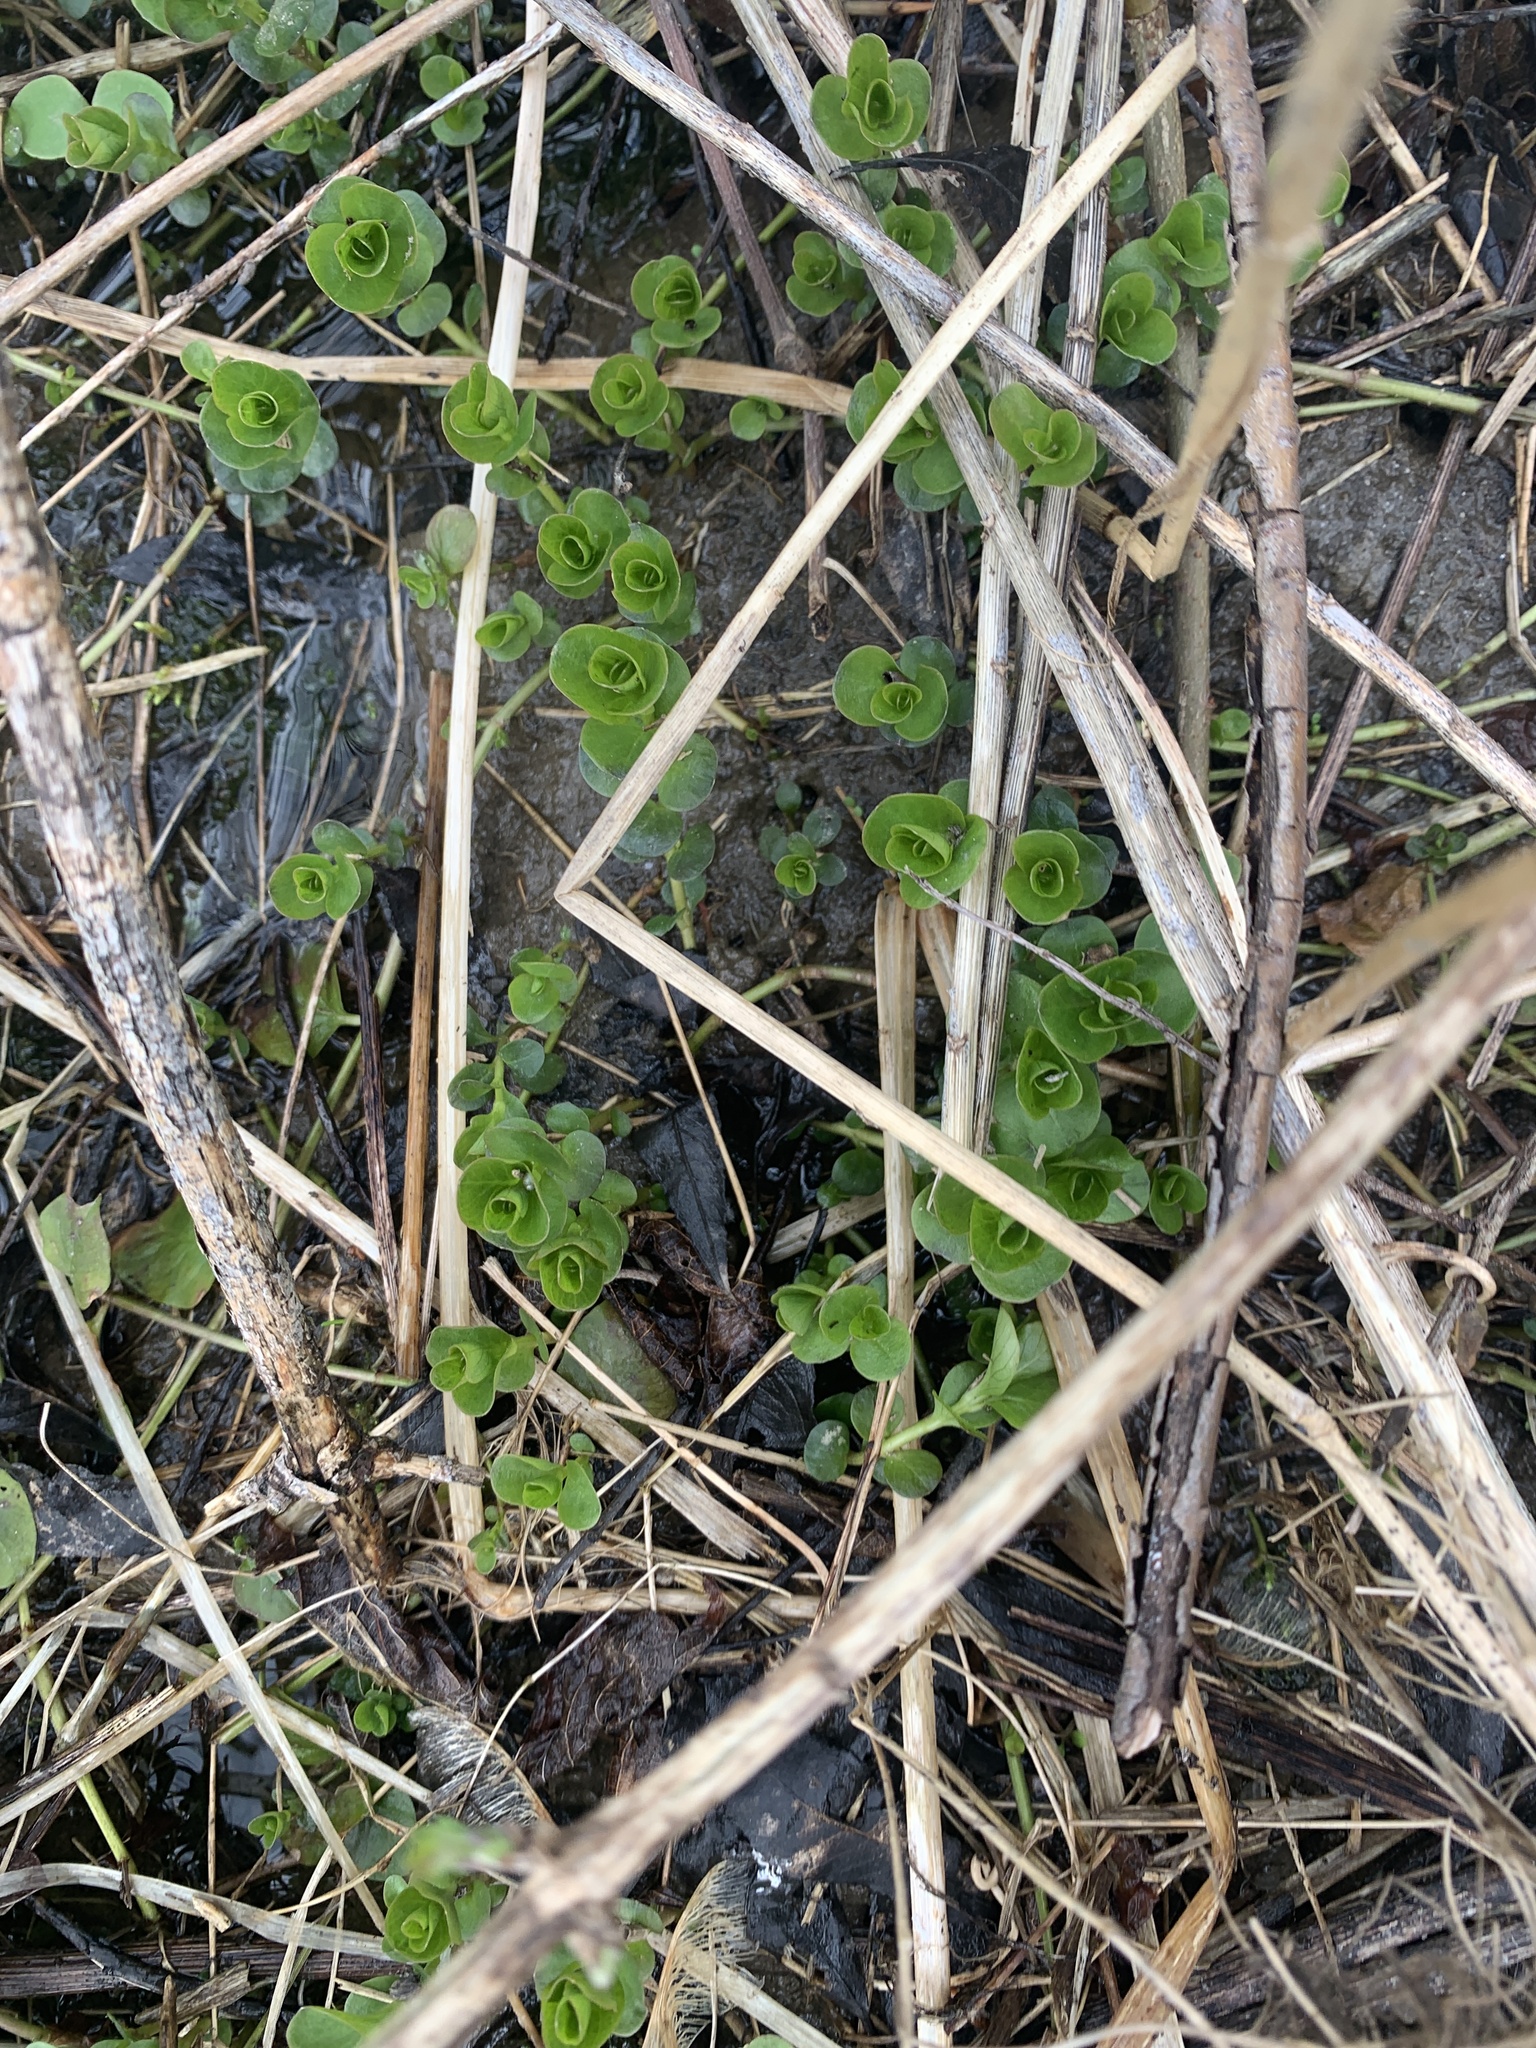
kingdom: Plantae
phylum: Tracheophyta
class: Magnoliopsida
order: Ericales
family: Primulaceae
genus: Lysimachia
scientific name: Lysimachia nummularia
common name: Moneywort
